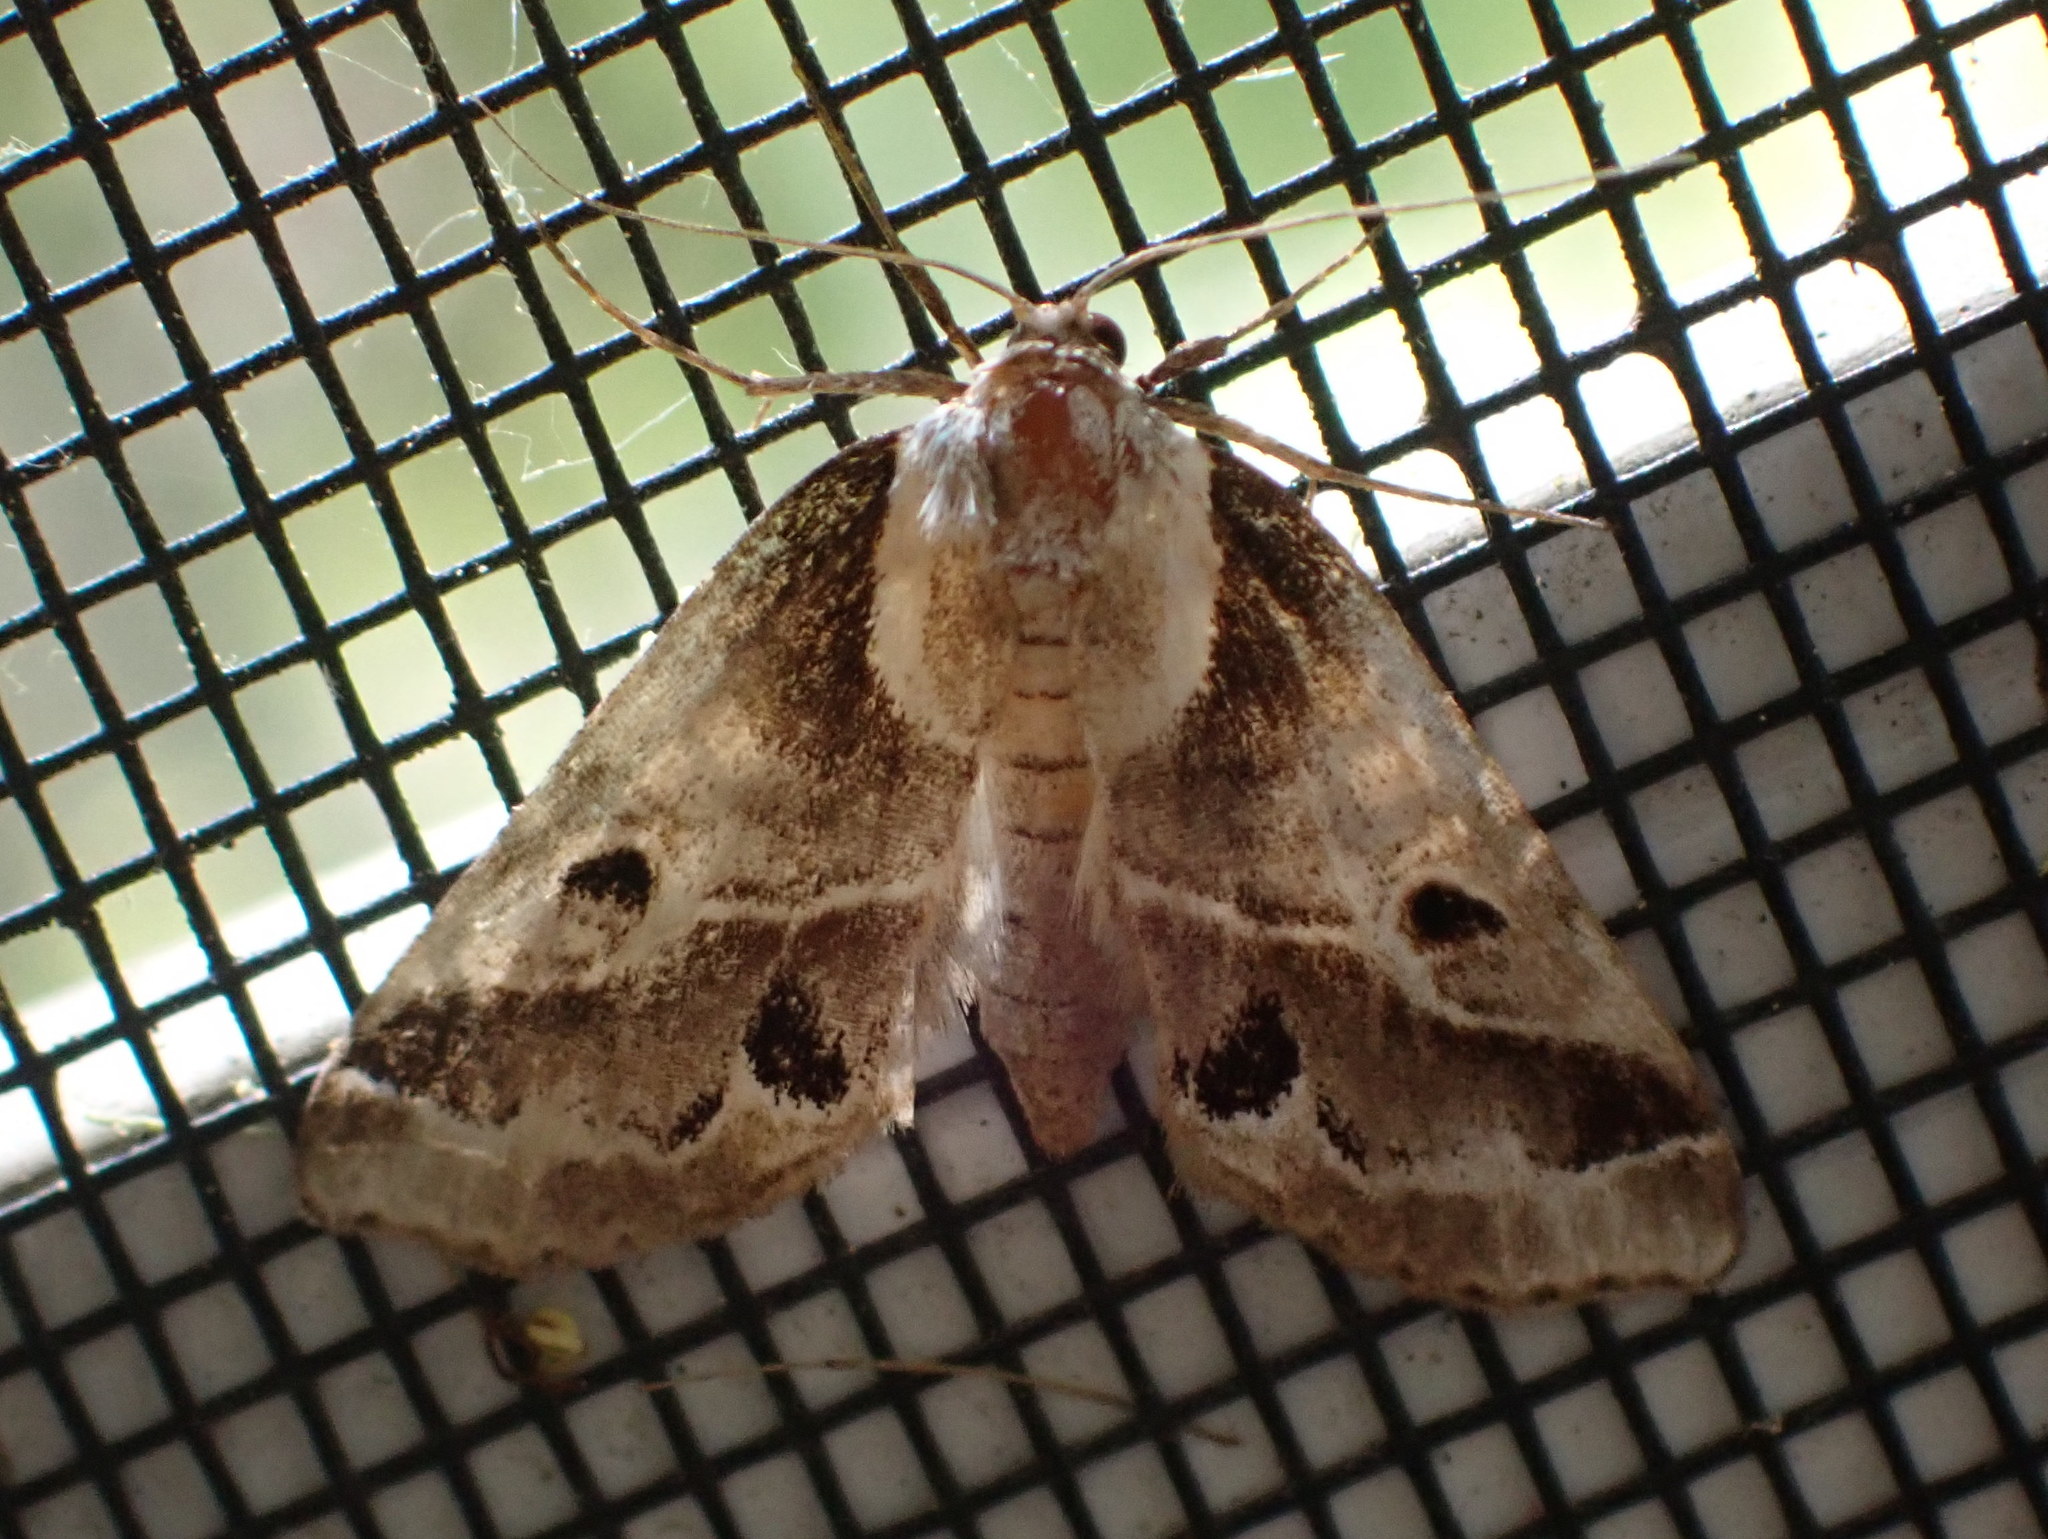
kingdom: Animalia
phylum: Arthropoda
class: Insecta
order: Lepidoptera
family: Nolidae
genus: Baileya
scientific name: Baileya doubledayi
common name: Doubleday's baileya moth
